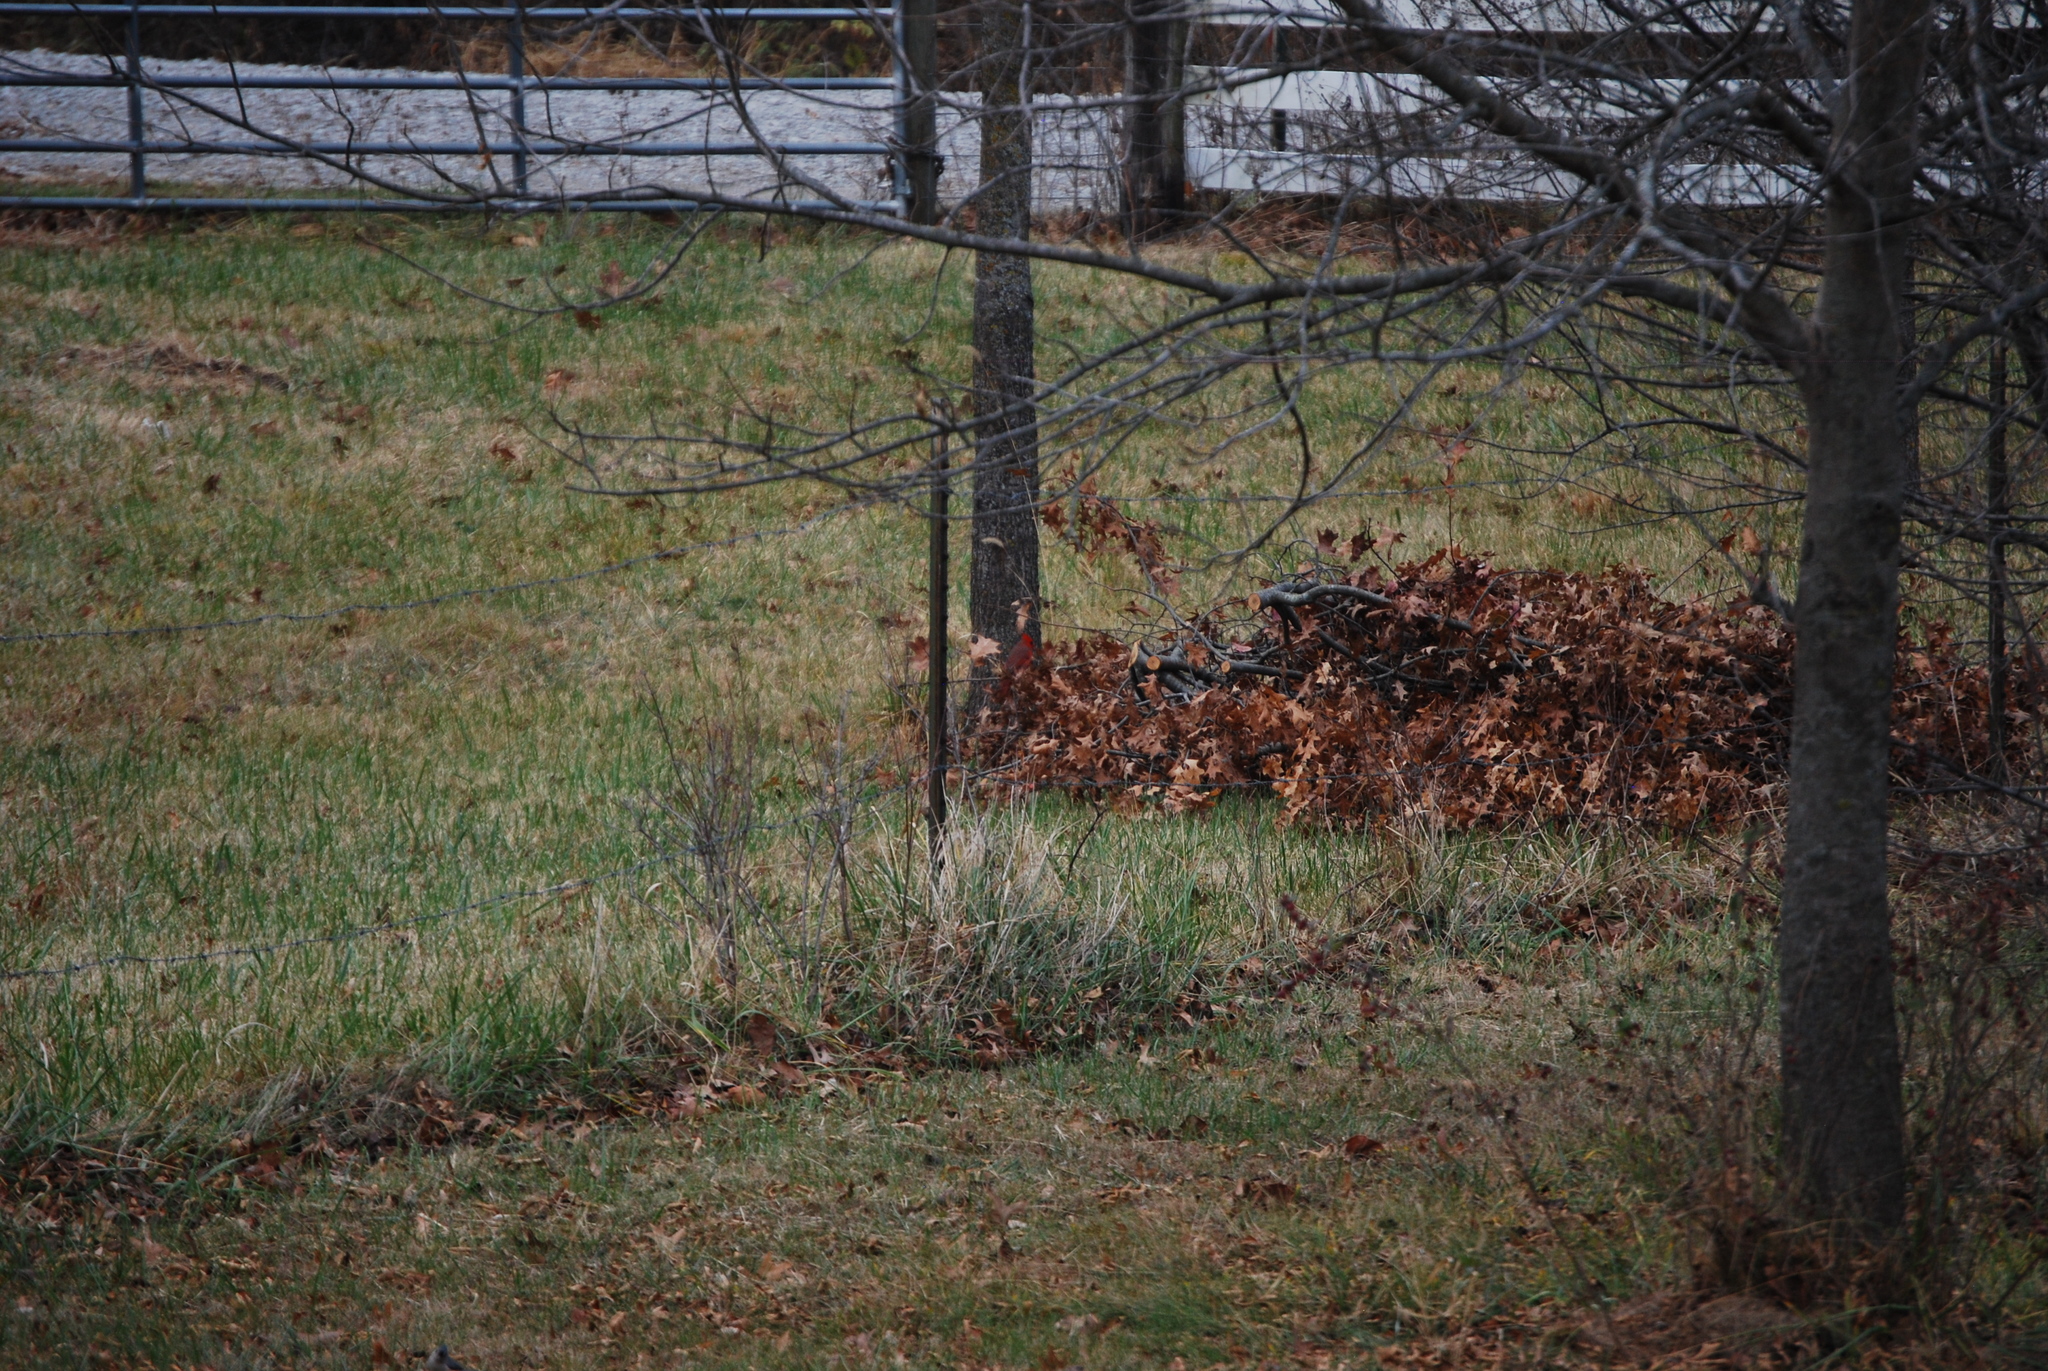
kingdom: Animalia
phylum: Chordata
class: Aves
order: Passeriformes
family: Cardinalidae
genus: Cardinalis
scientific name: Cardinalis cardinalis
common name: Northern cardinal
